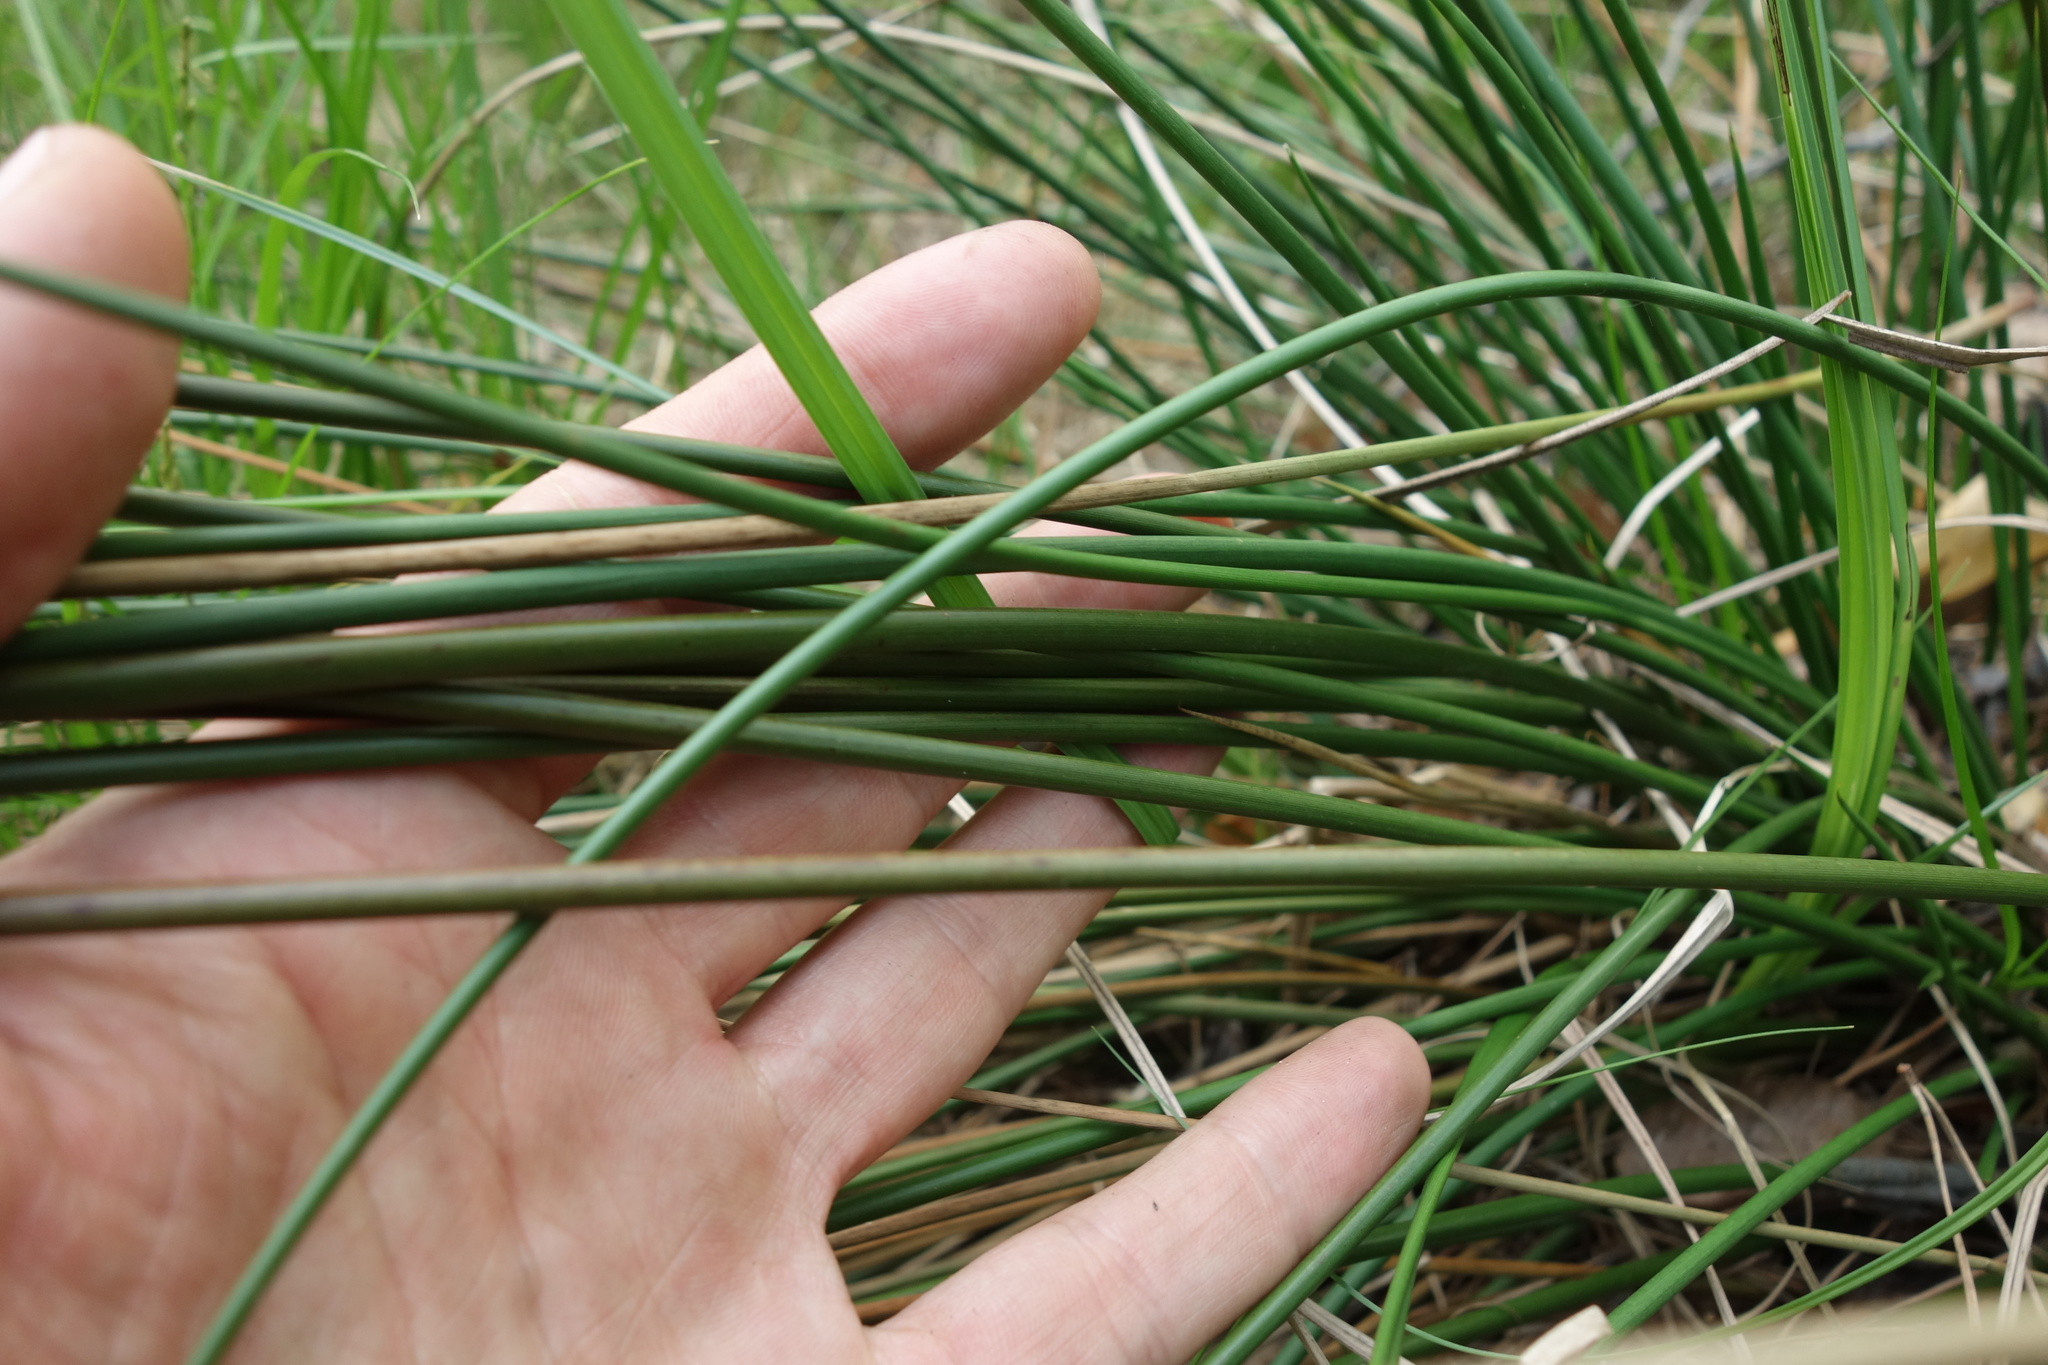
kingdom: Plantae
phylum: Tracheophyta
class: Liliopsida
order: Poales
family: Juncaceae
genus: Juncus
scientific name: Juncus effusus
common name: Soft rush
